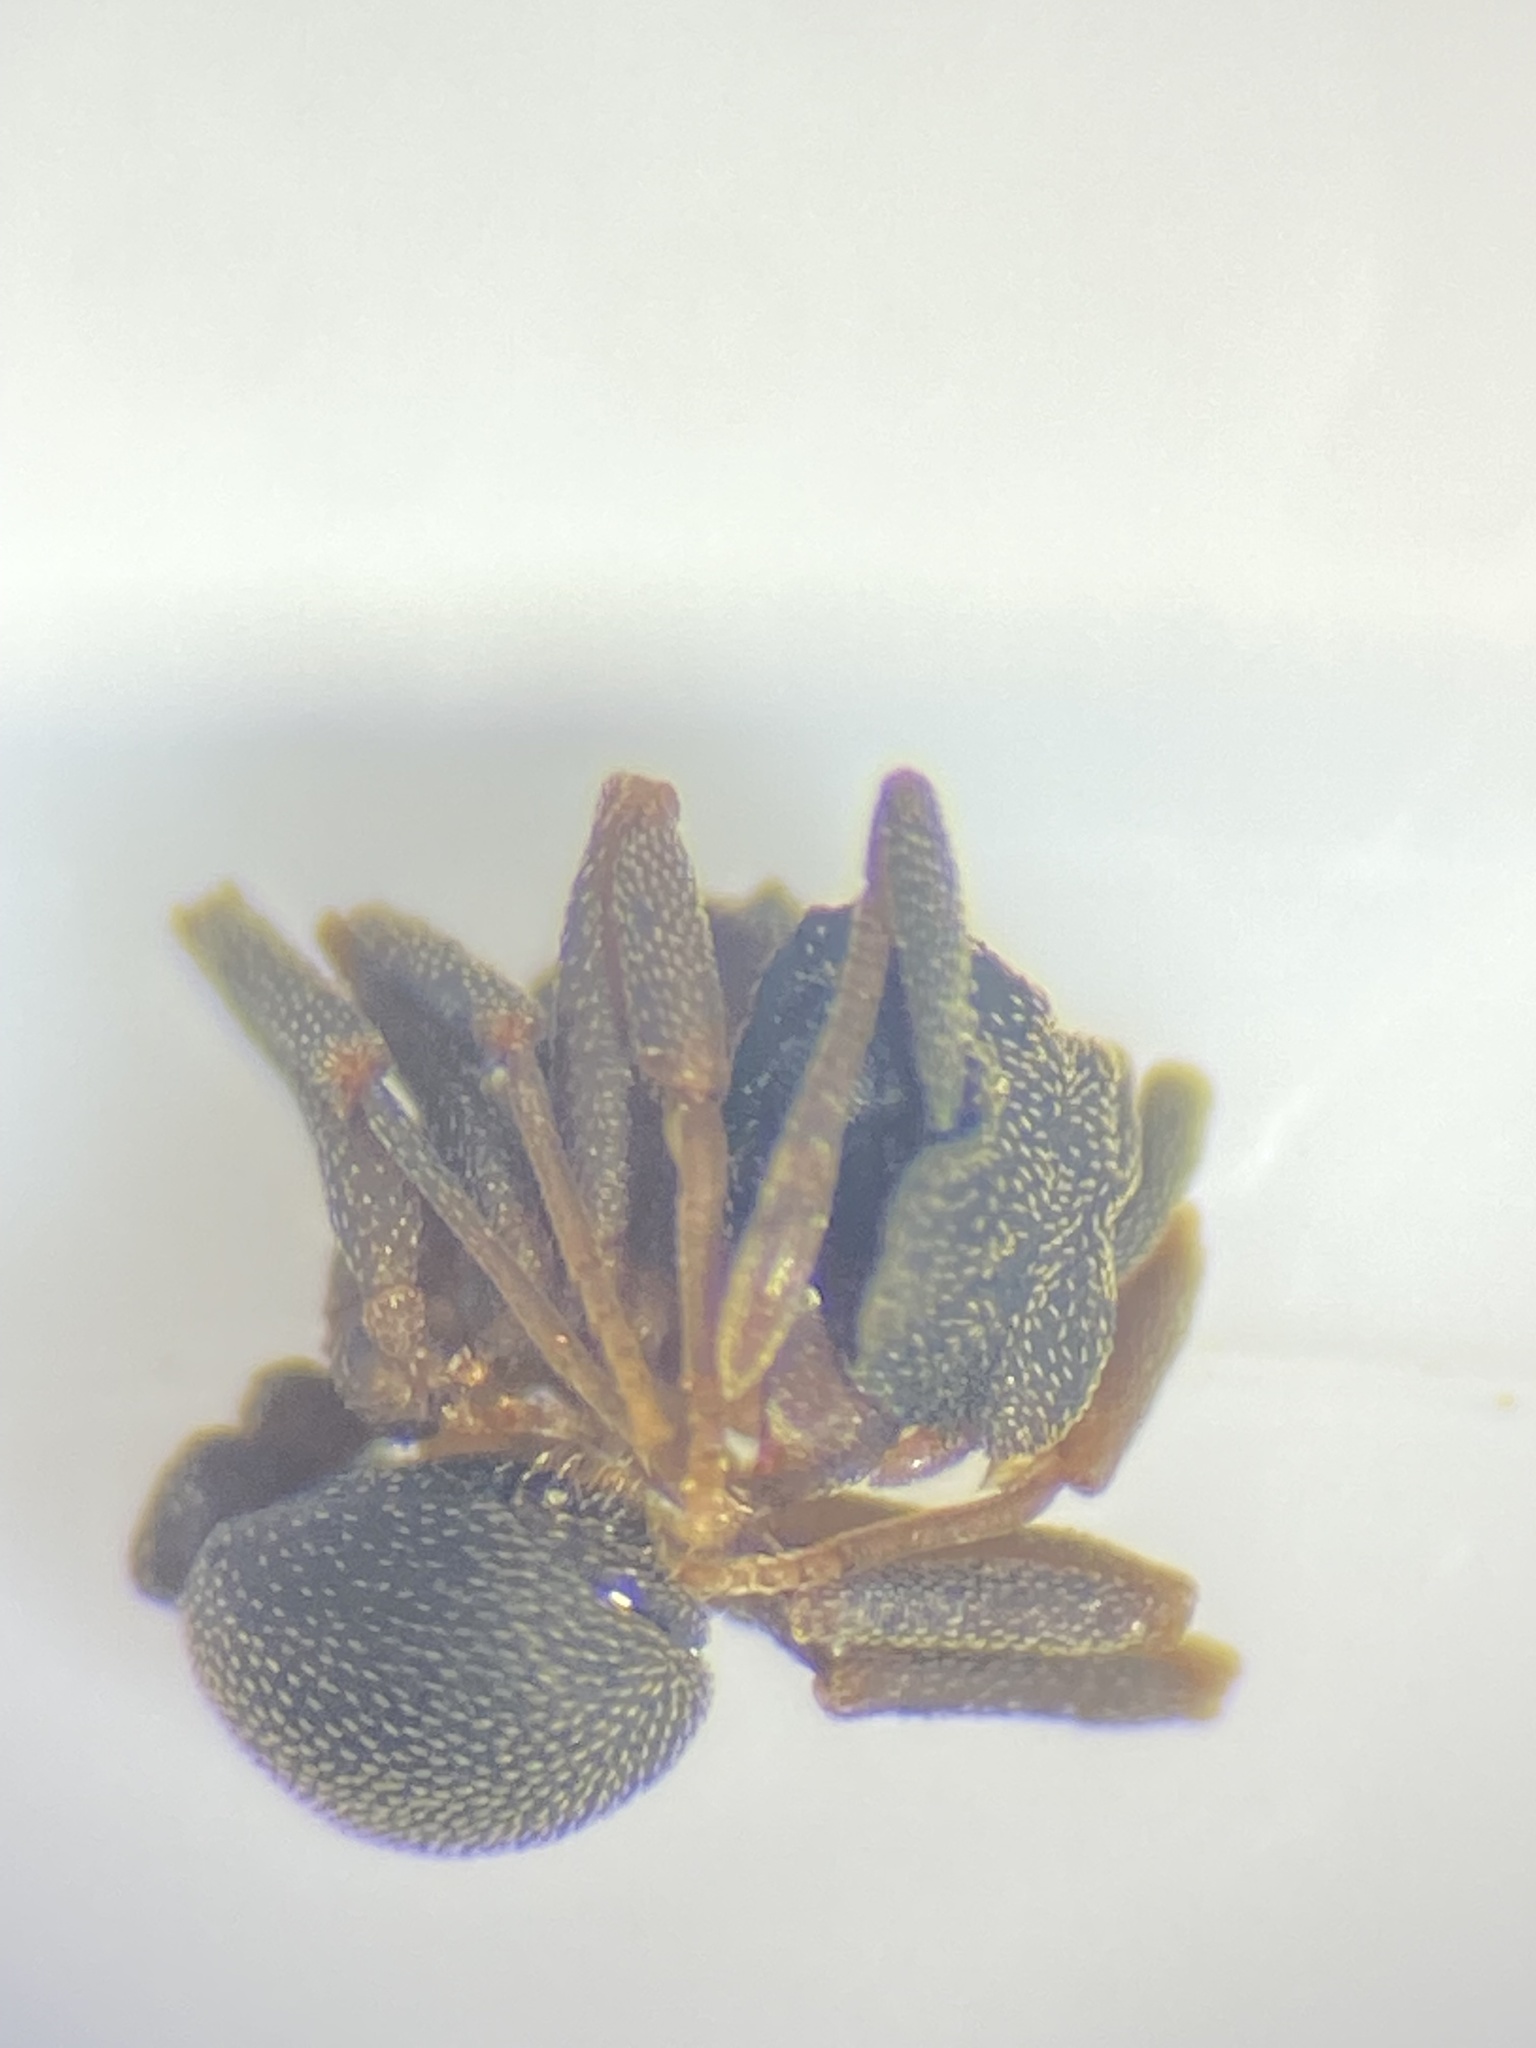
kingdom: Animalia
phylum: Arthropoda
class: Insecta
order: Hymenoptera
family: Formicidae
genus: Cyphomyrmex
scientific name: Cyphomyrmex rimosus
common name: Rimose fungus ant
